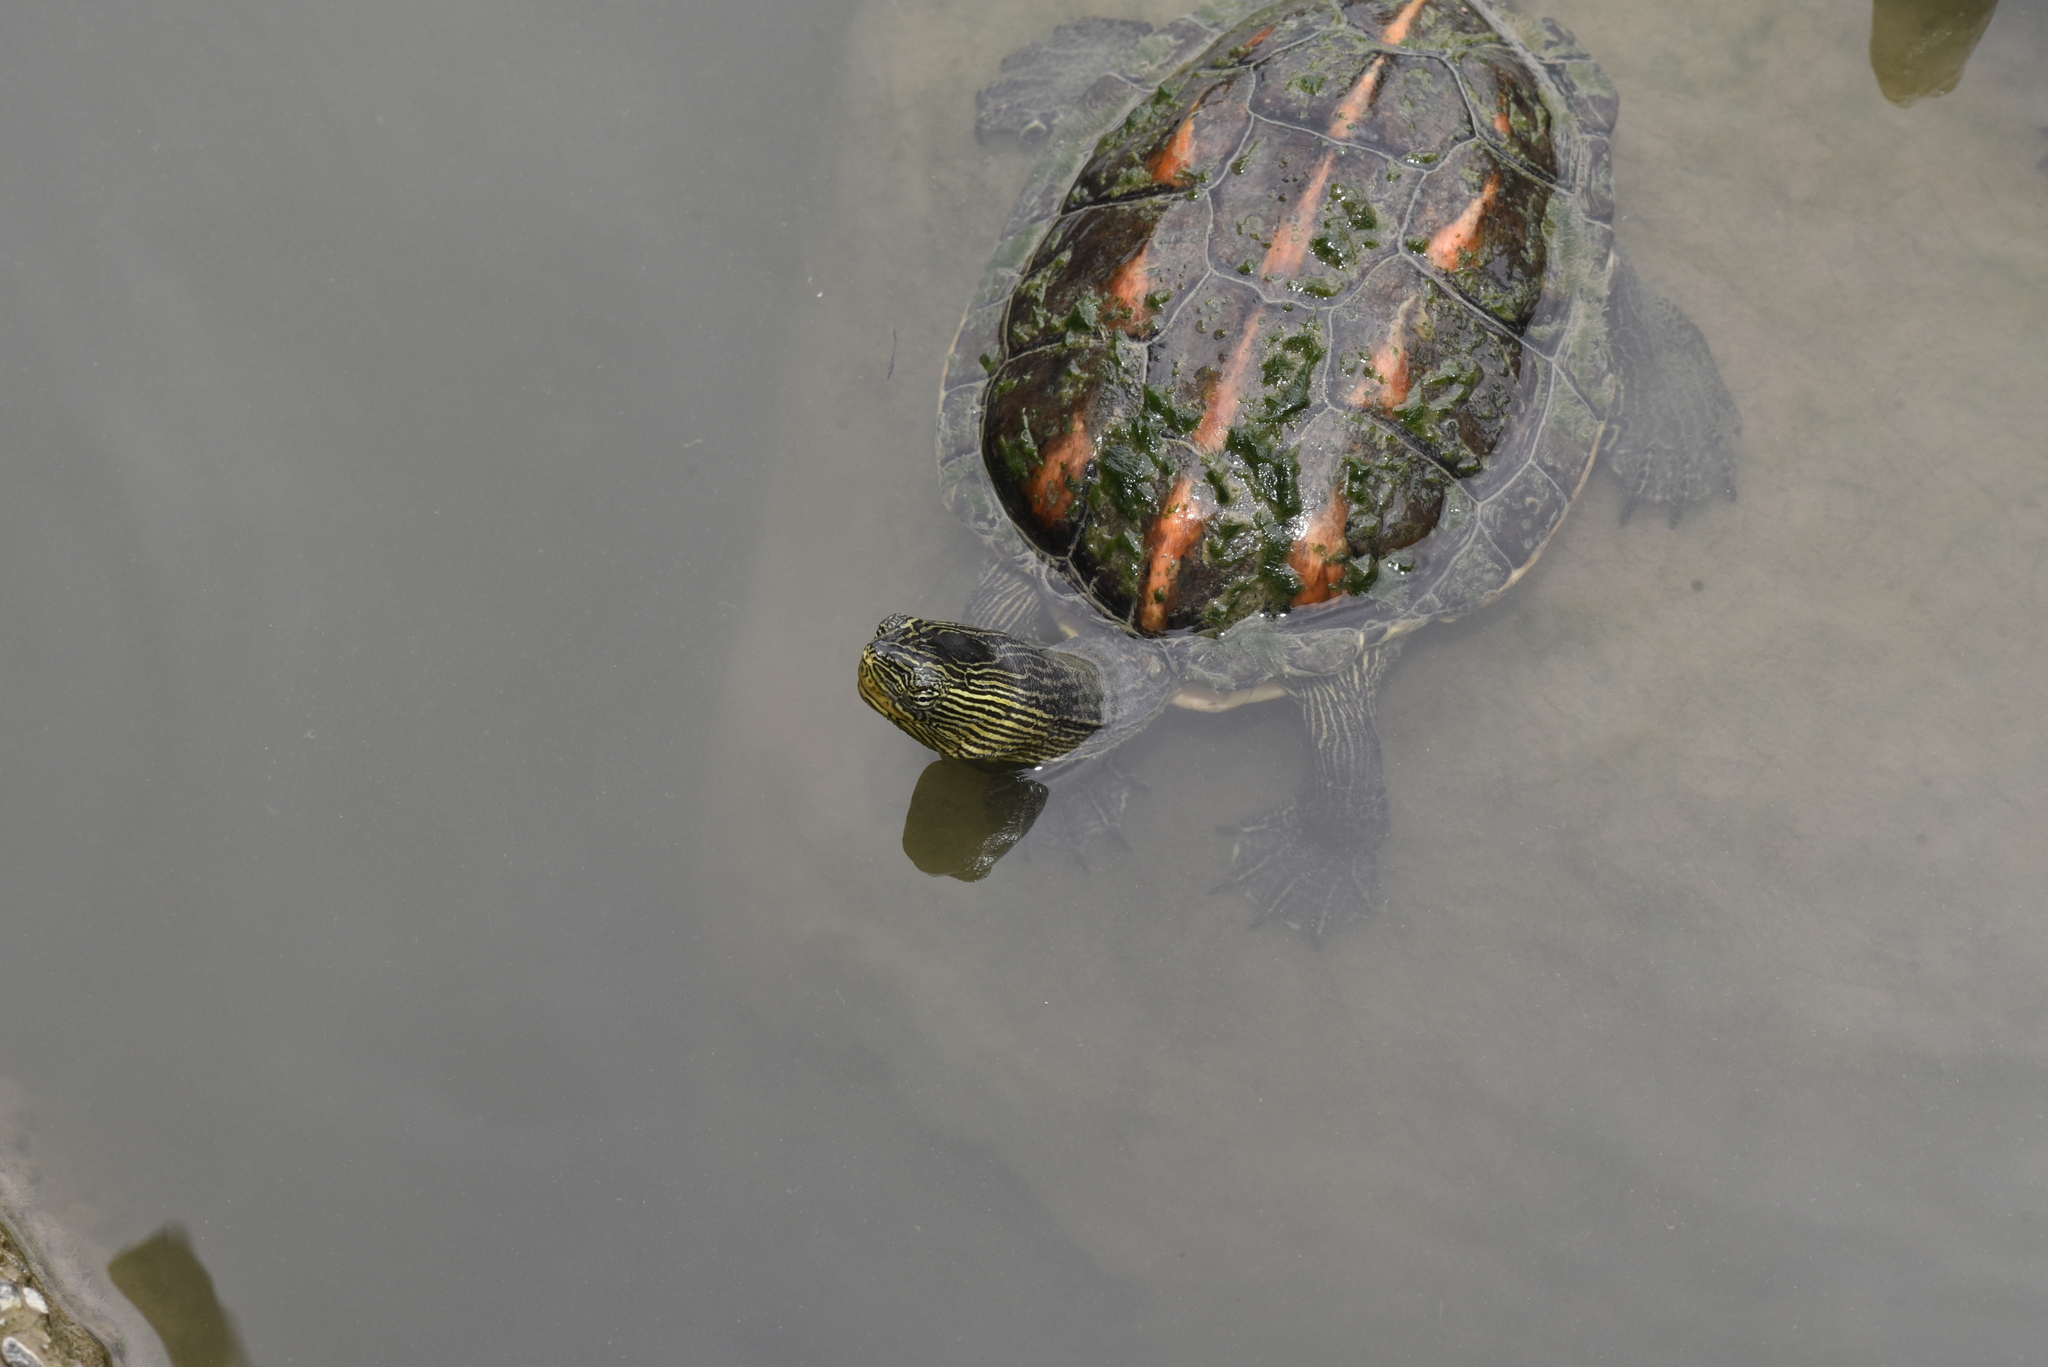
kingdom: Animalia
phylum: Chordata
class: Testudines
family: Geoemydidae
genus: Mauremys
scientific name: Mauremys sinensis
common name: Chinese stripe-necked turtle
